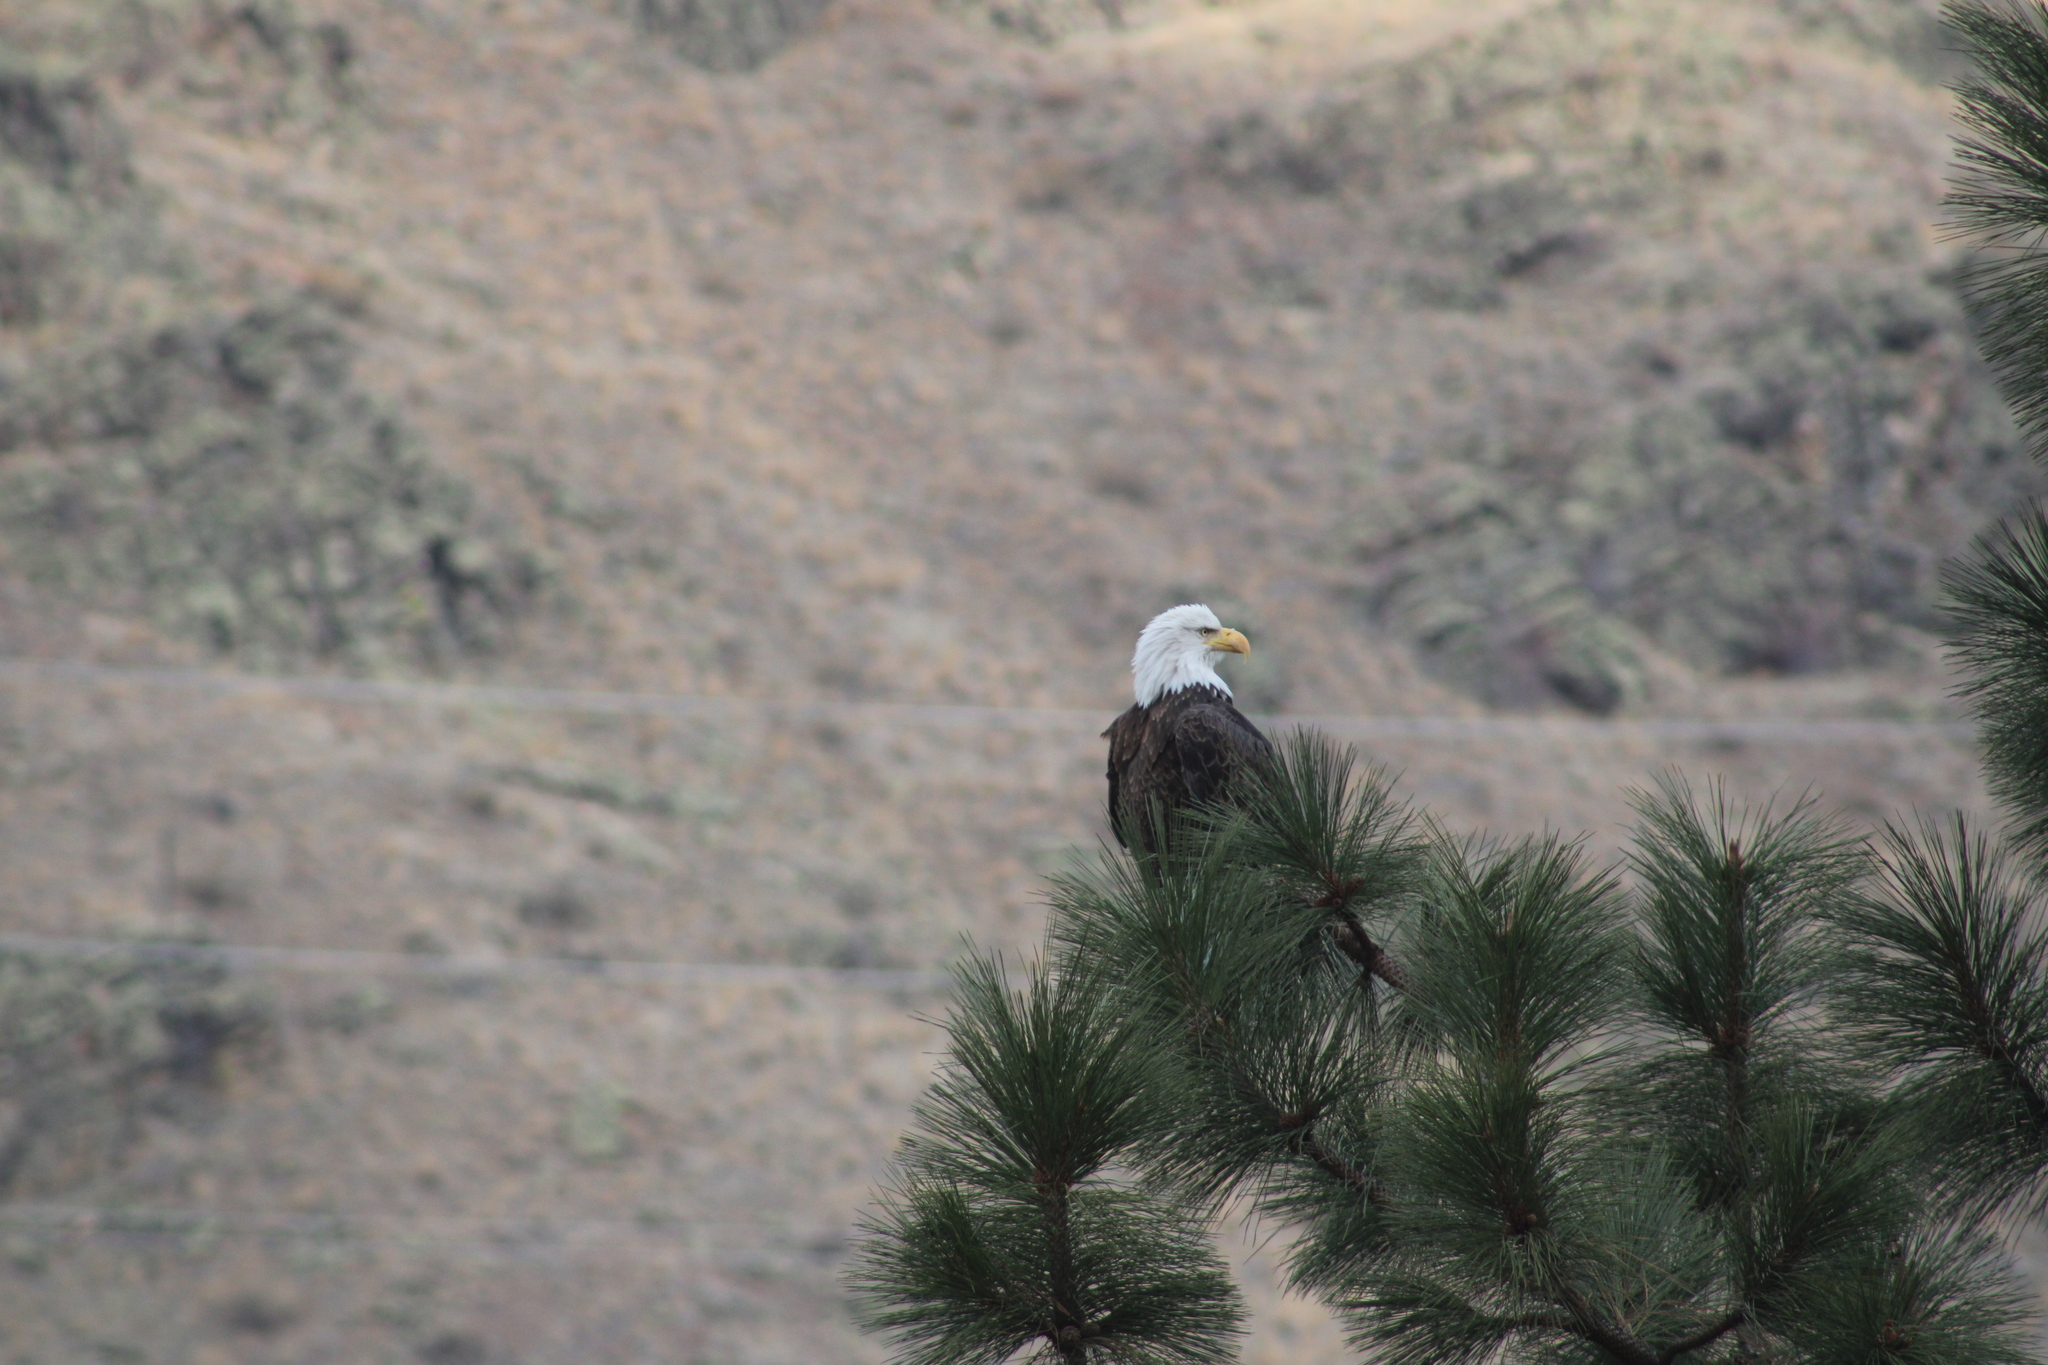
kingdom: Animalia
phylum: Chordata
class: Aves
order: Accipitriformes
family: Accipitridae
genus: Haliaeetus
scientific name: Haliaeetus leucocephalus
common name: Bald eagle
